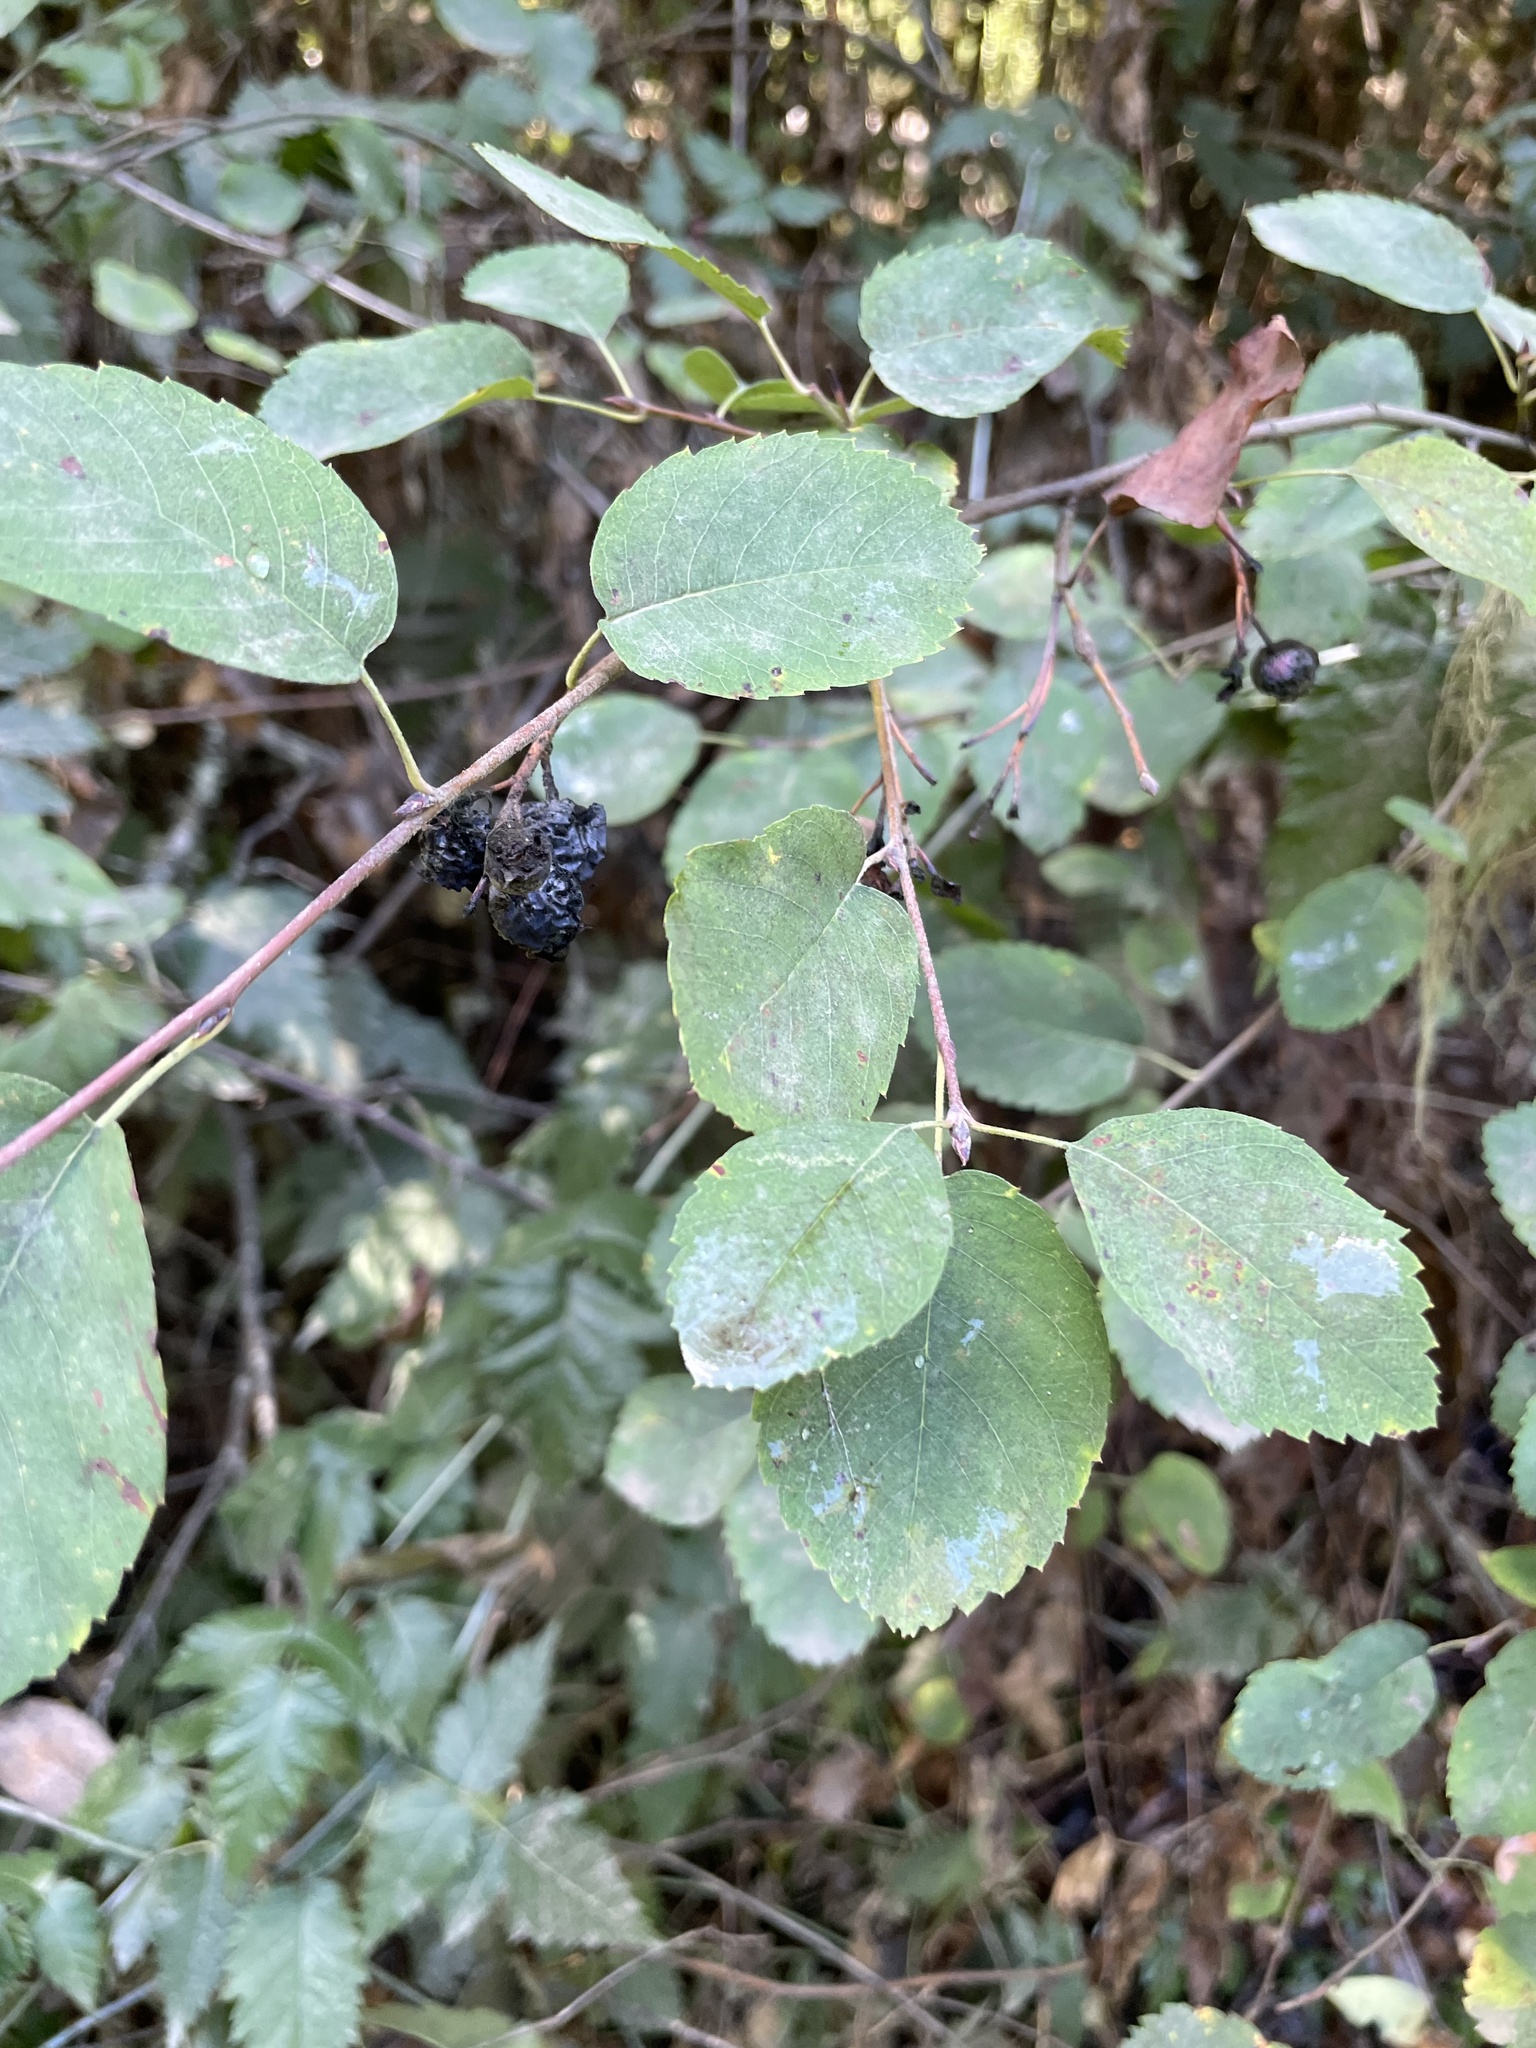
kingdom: Plantae
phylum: Tracheophyta
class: Magnoliopsida
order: Rosales
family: Rosaceae
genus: Amelanchier
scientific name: Amelanchier alnifolia
